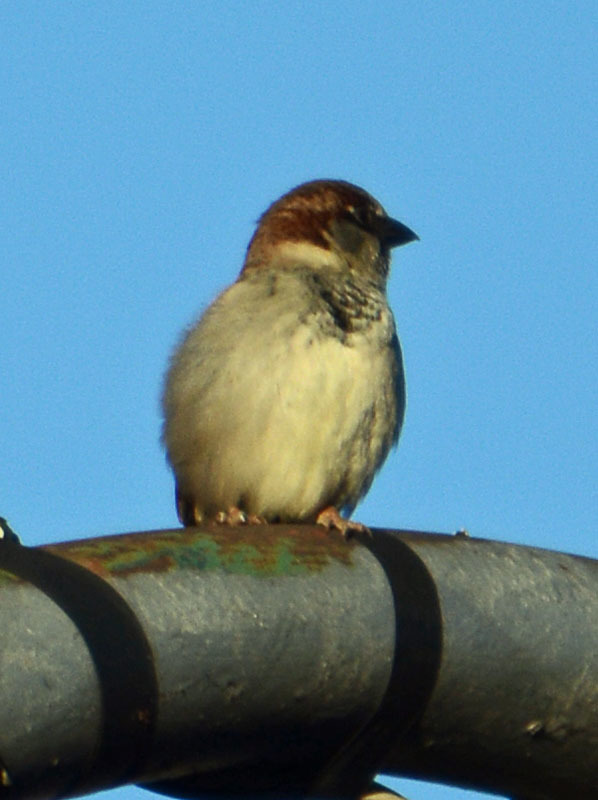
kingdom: Animalia
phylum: Chordata
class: Aves
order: Passeriformes
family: Passeridae
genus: Passer
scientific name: Passer domesticus
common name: House sparrow
